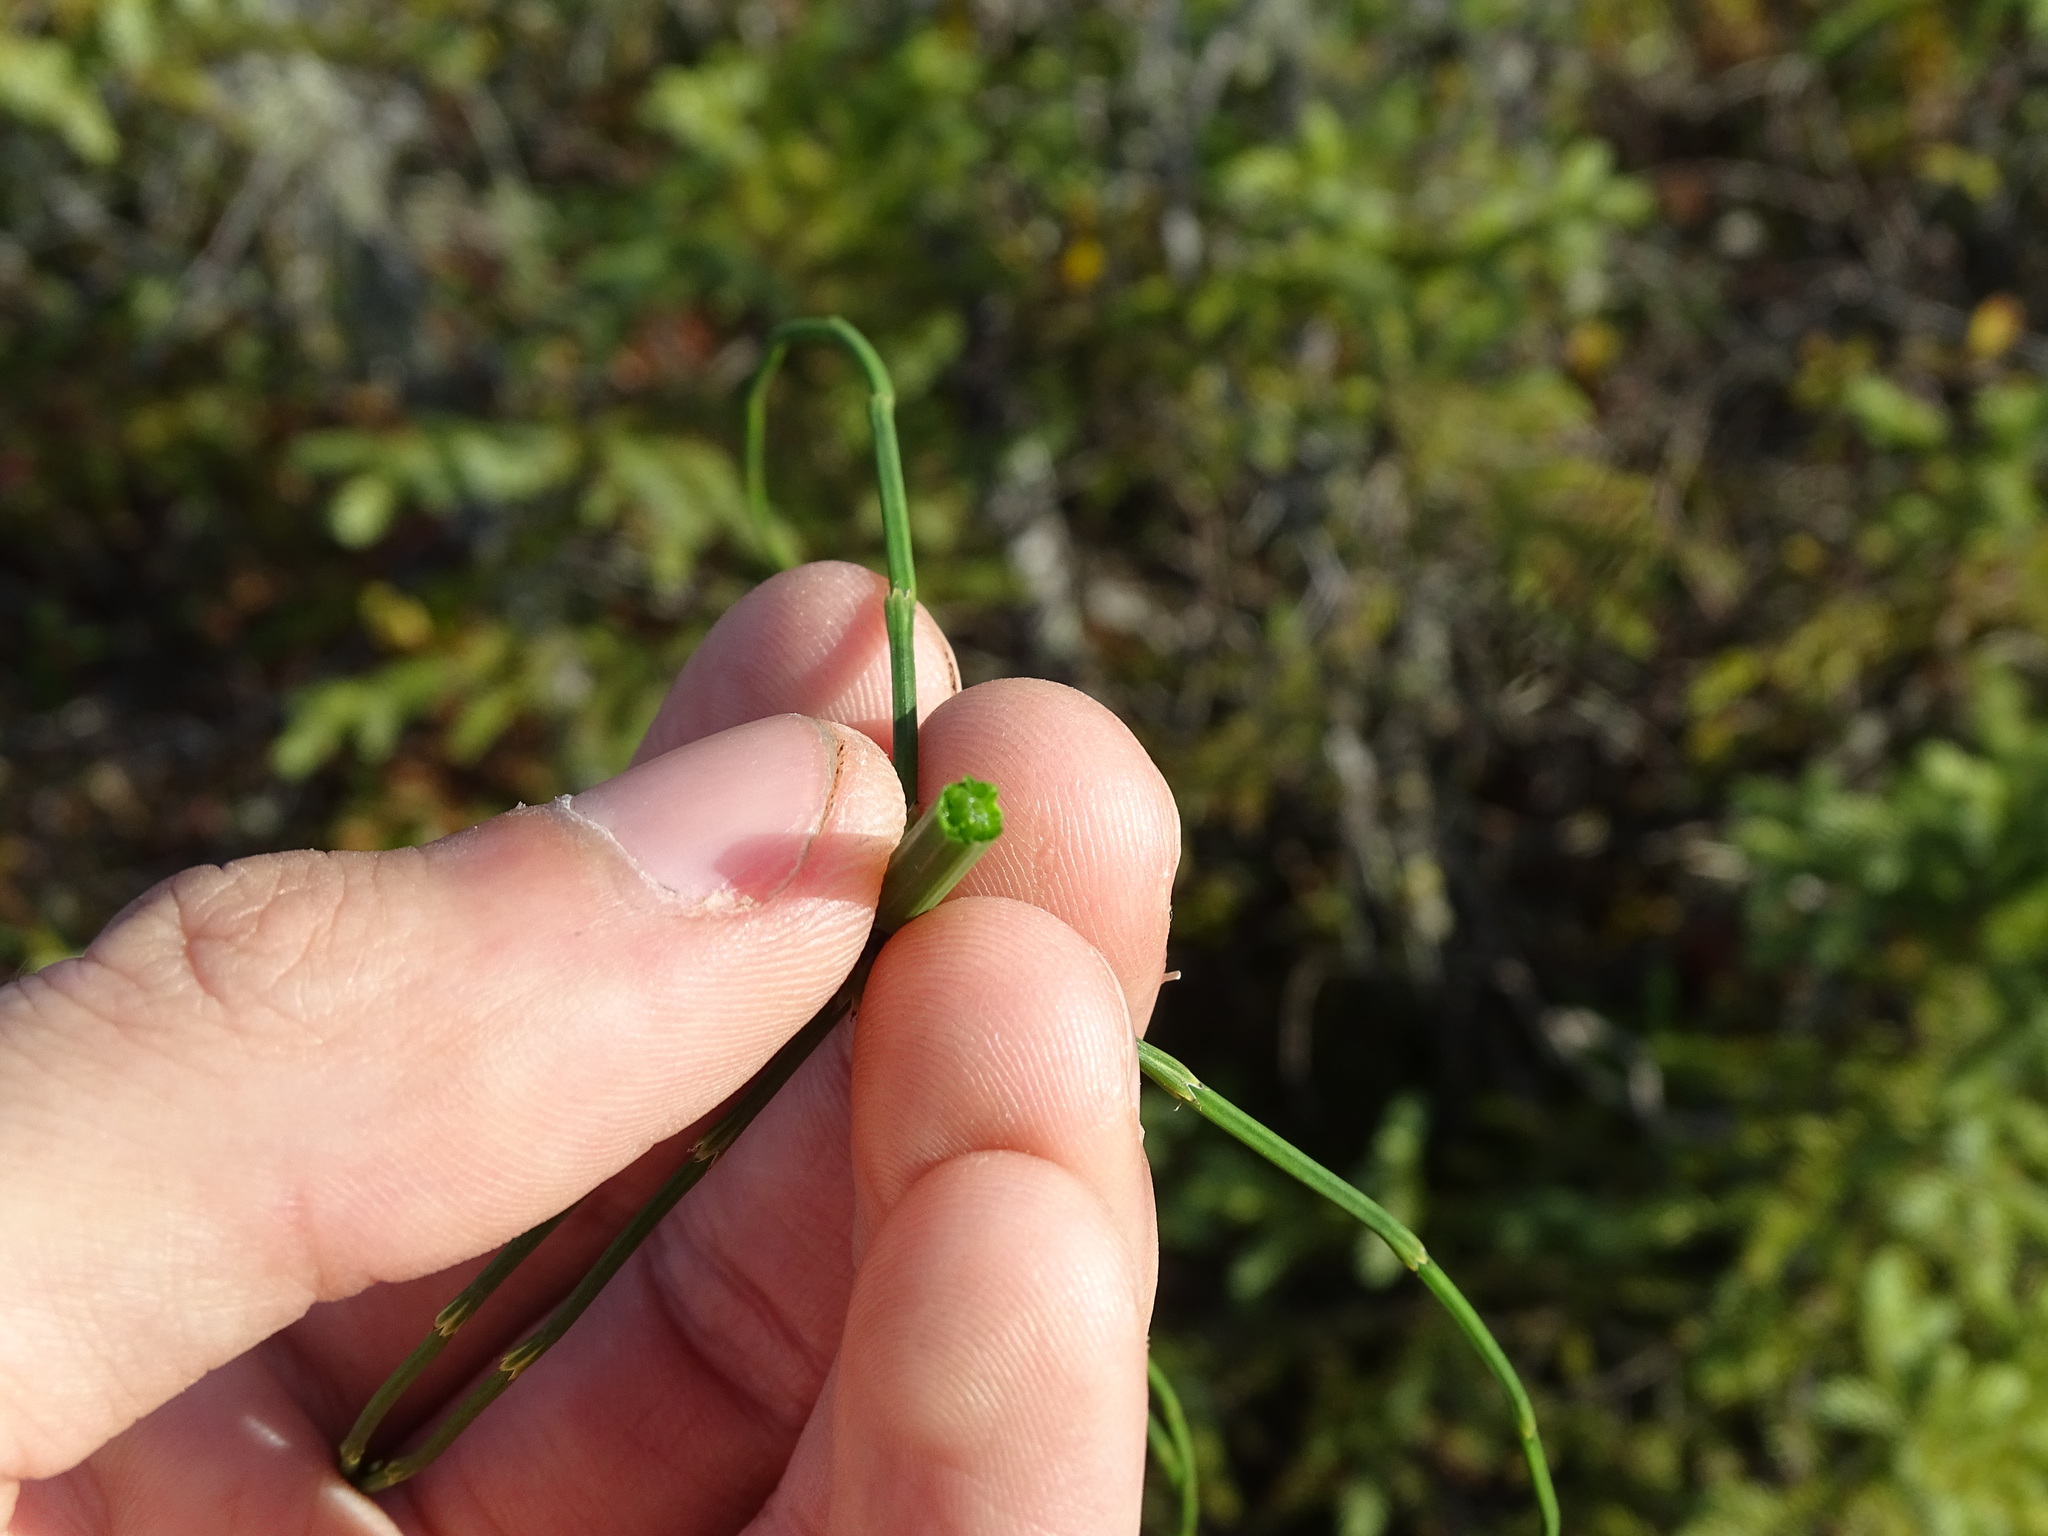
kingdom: Plantae
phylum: Tracheophyta
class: Polypodiopsida
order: Equisetales
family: Equisetaceae
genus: Equisetum
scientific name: Equisetum palustre
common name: Marsh horsetail
